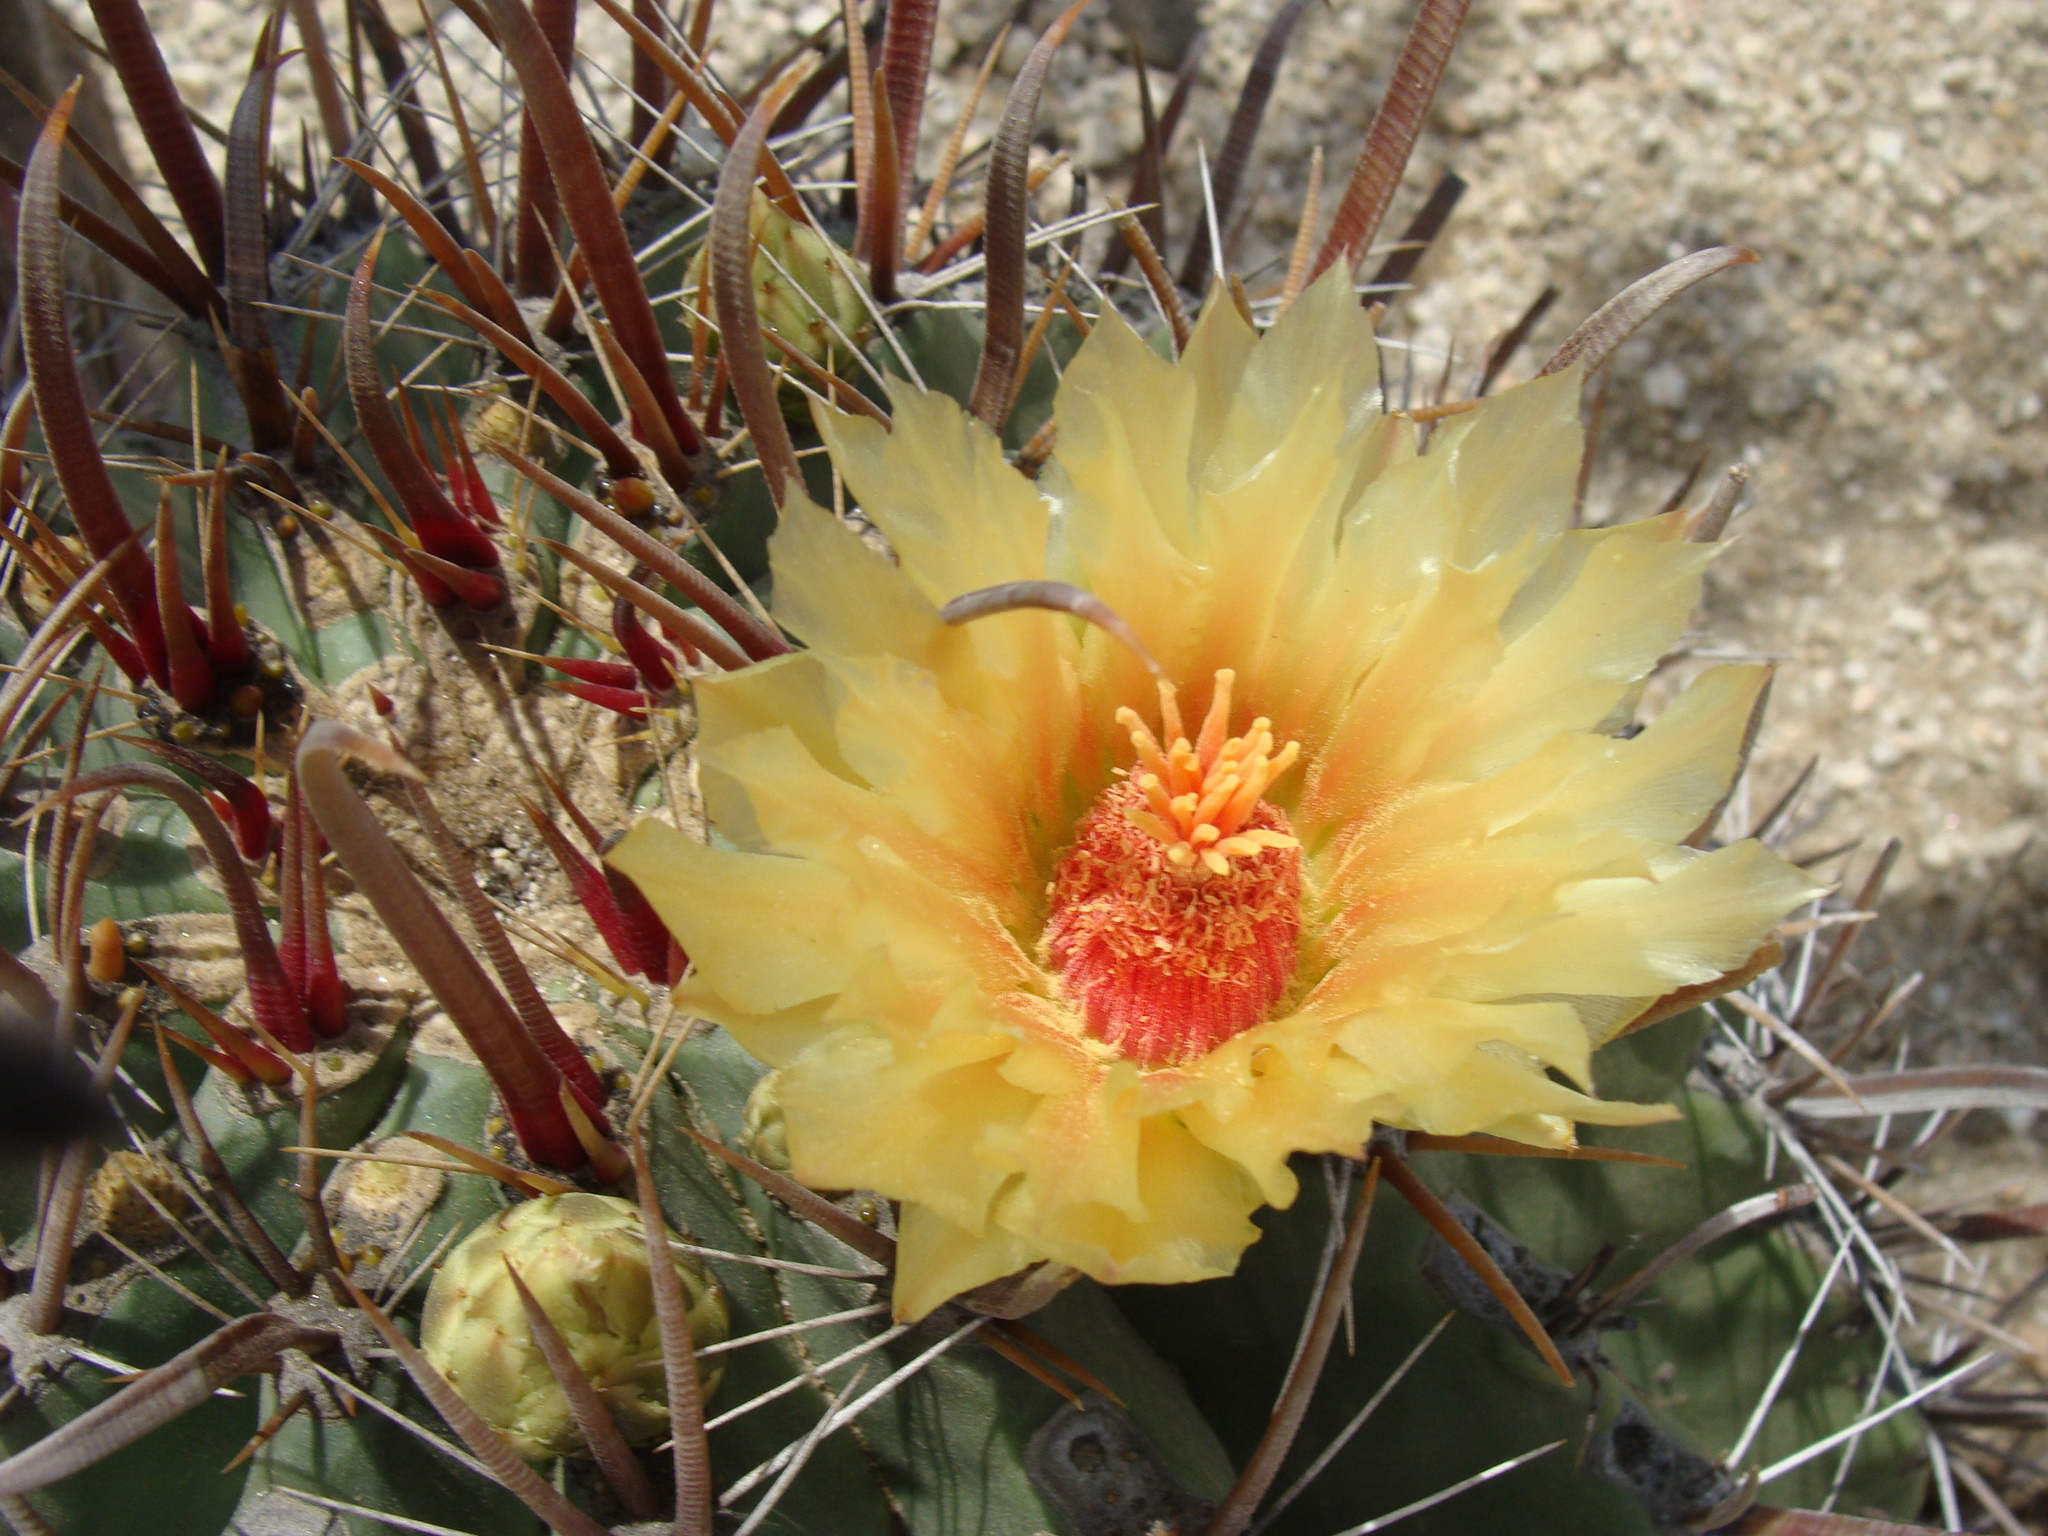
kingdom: Plantae
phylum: Tracheophyta
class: Magnoliopsida
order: Caryophyllales
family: Cactaceae
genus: Ferocactus
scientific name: Ferocactus townsendianus
